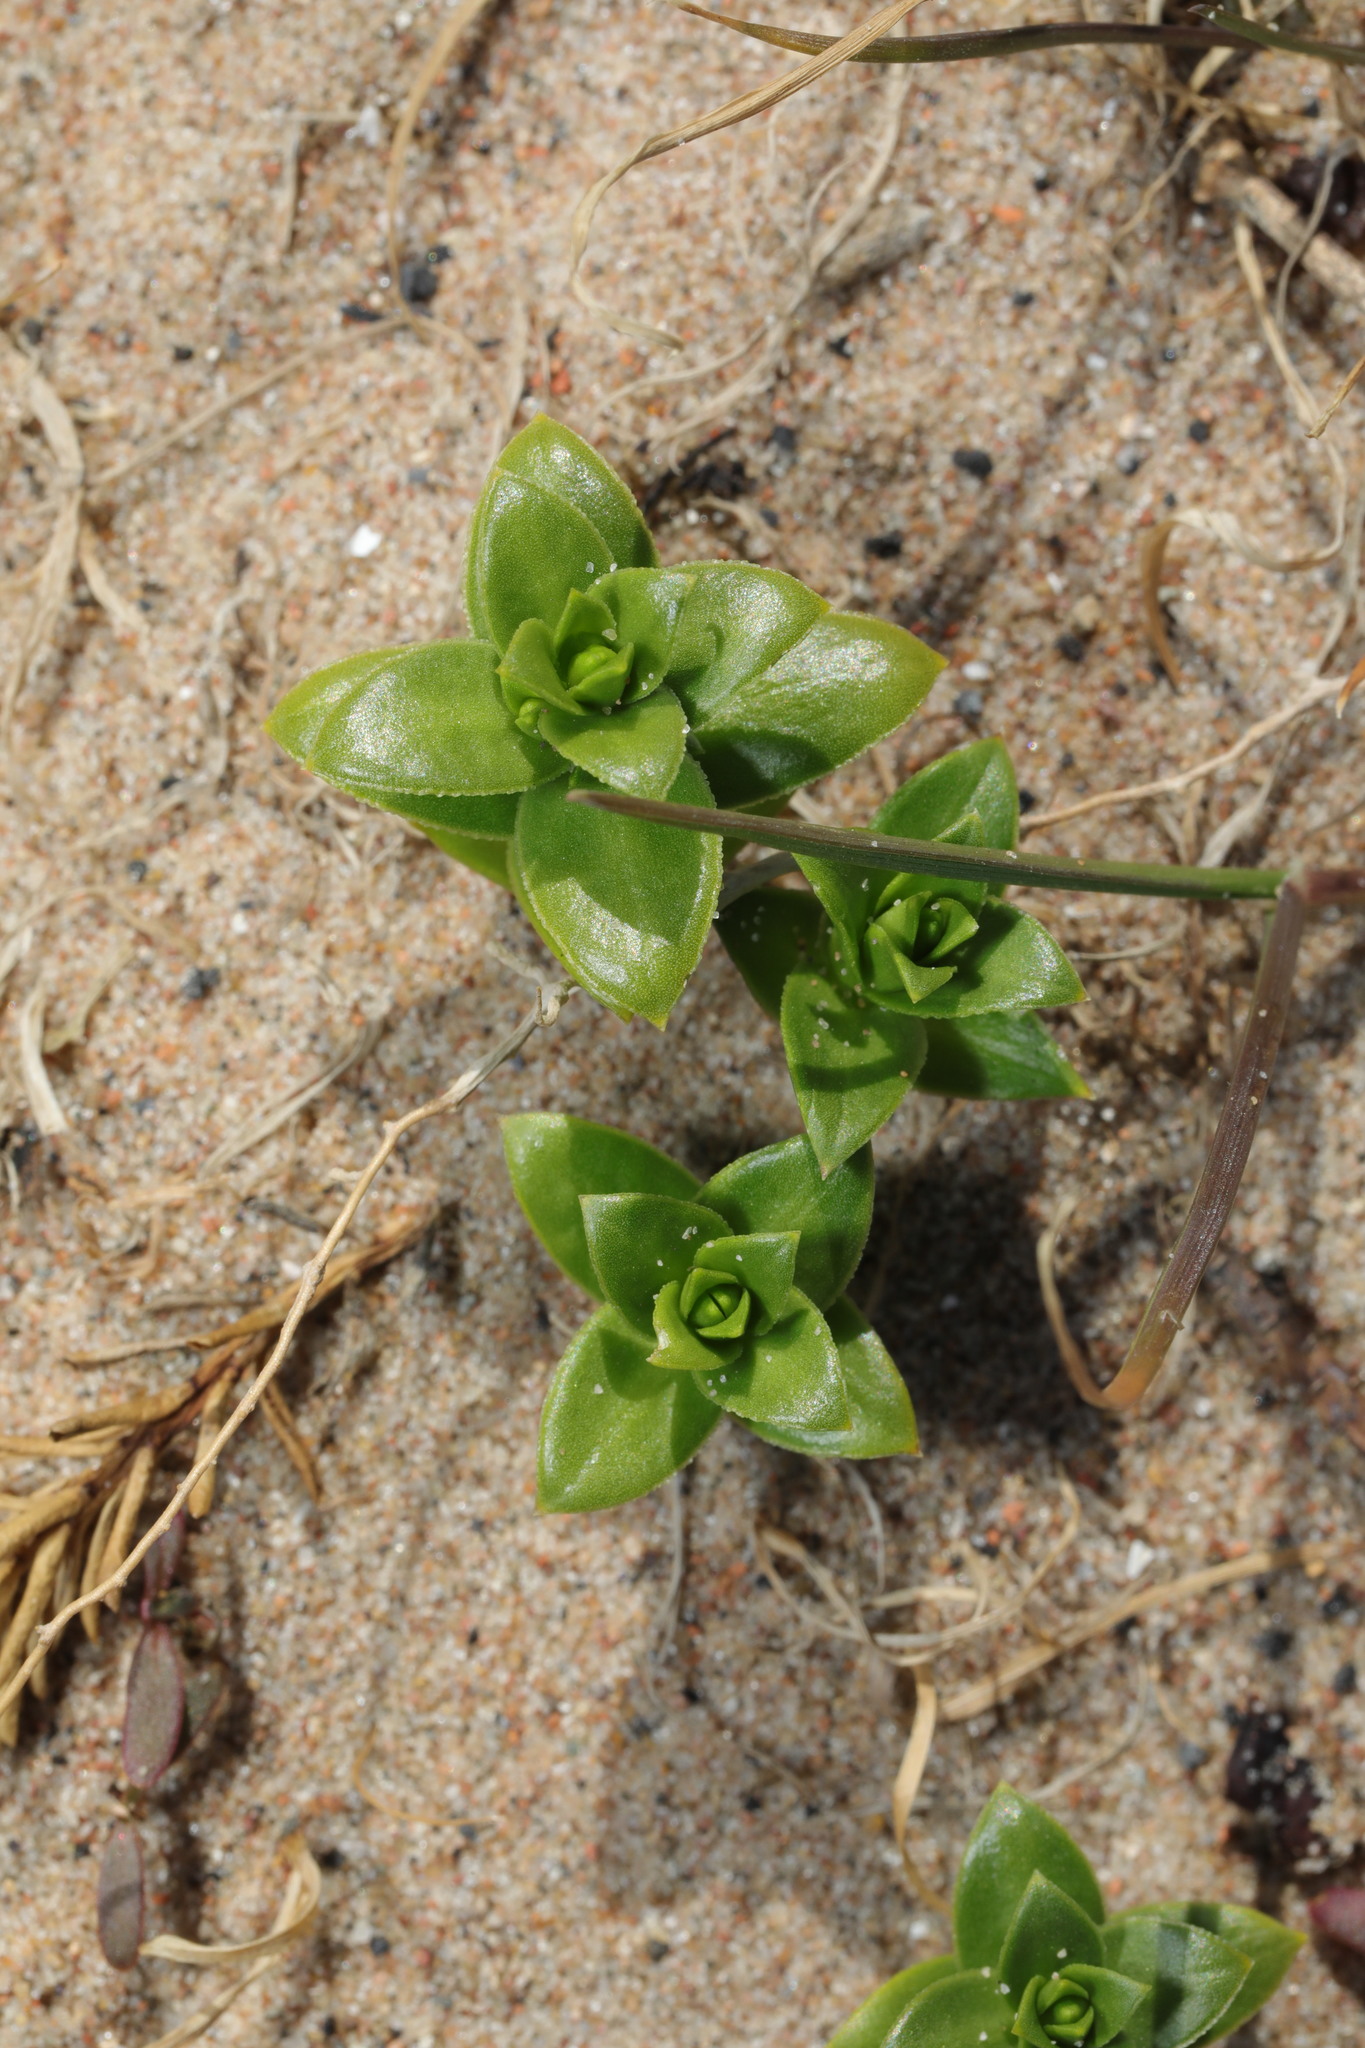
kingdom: Plantae
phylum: Tracheophyta
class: Magnoliopsida
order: Caryophyllales
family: Caryophyllaceae
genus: Honckenya
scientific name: Honckenya peploides
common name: Sea sandwort
